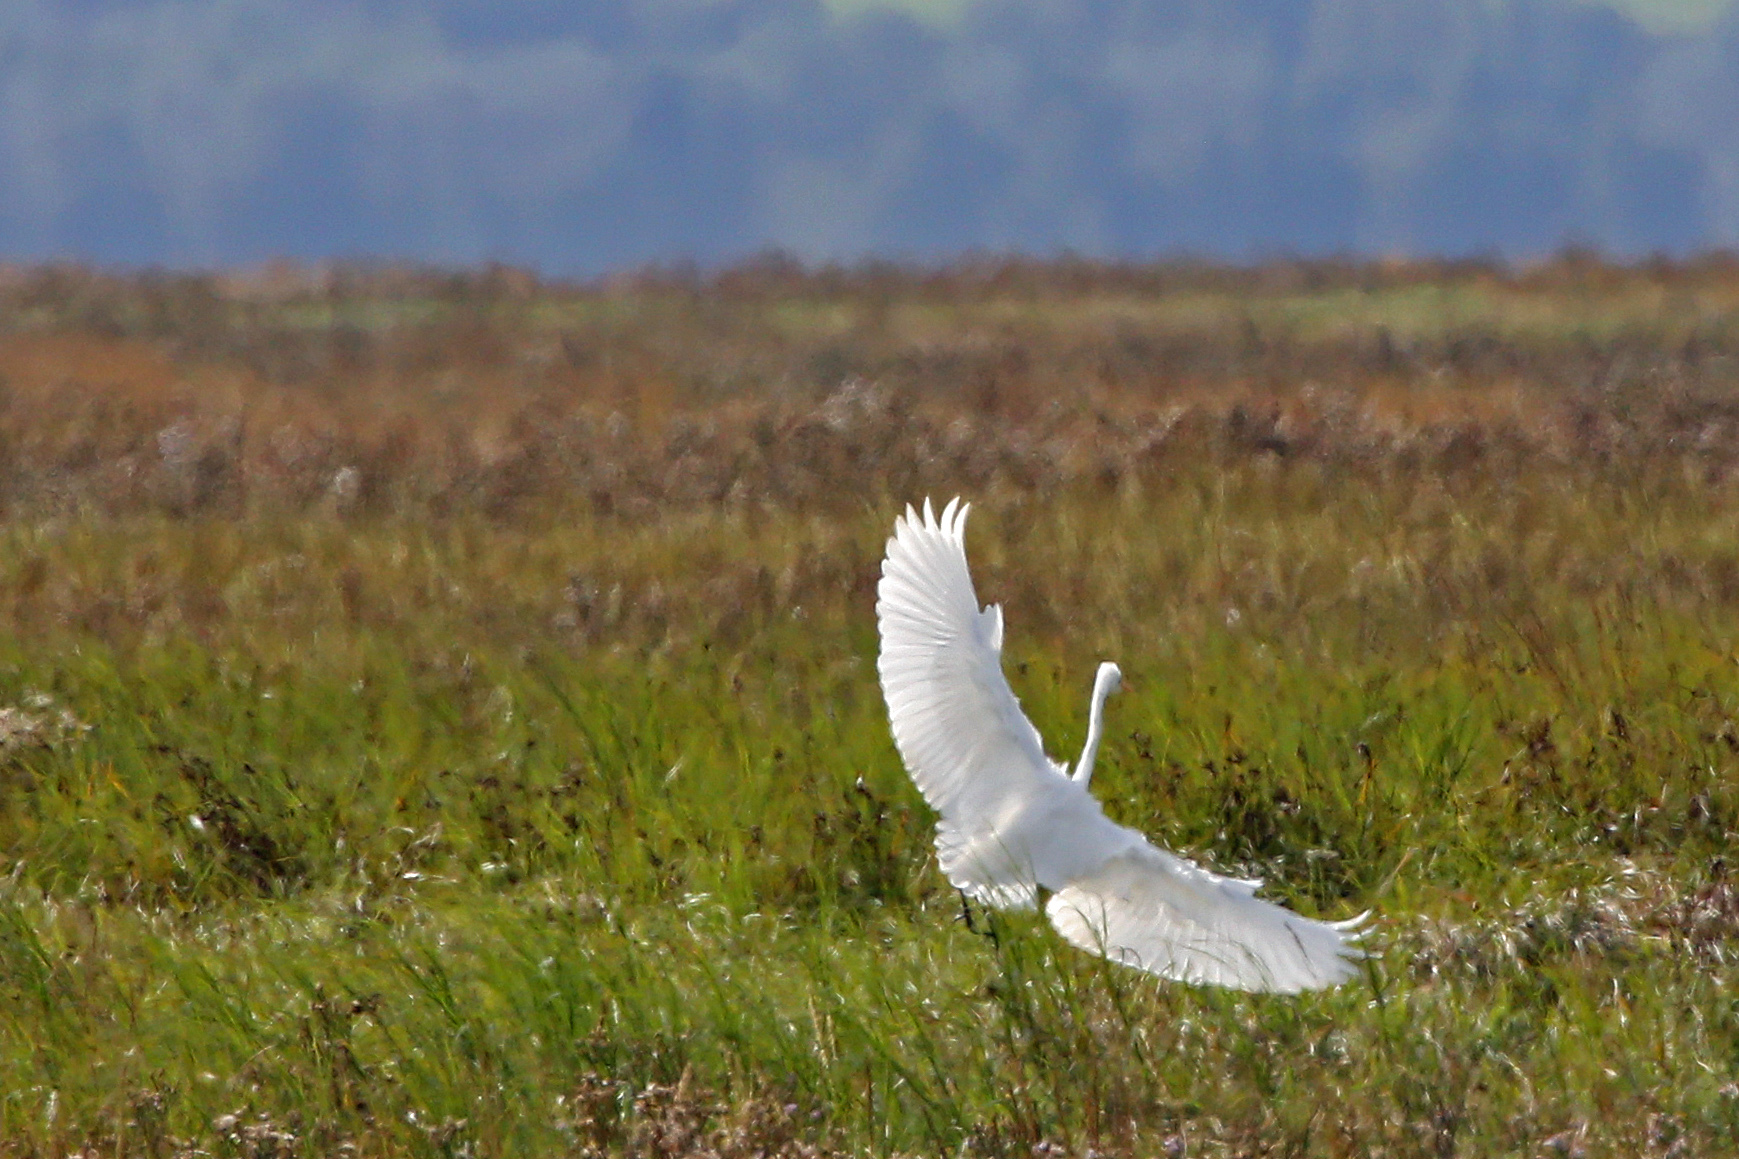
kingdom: Animalia
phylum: Chordata
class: Aves
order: Pelecaniformes
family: Ardeidae
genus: Ardea
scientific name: Ardea alba
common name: Great egret
